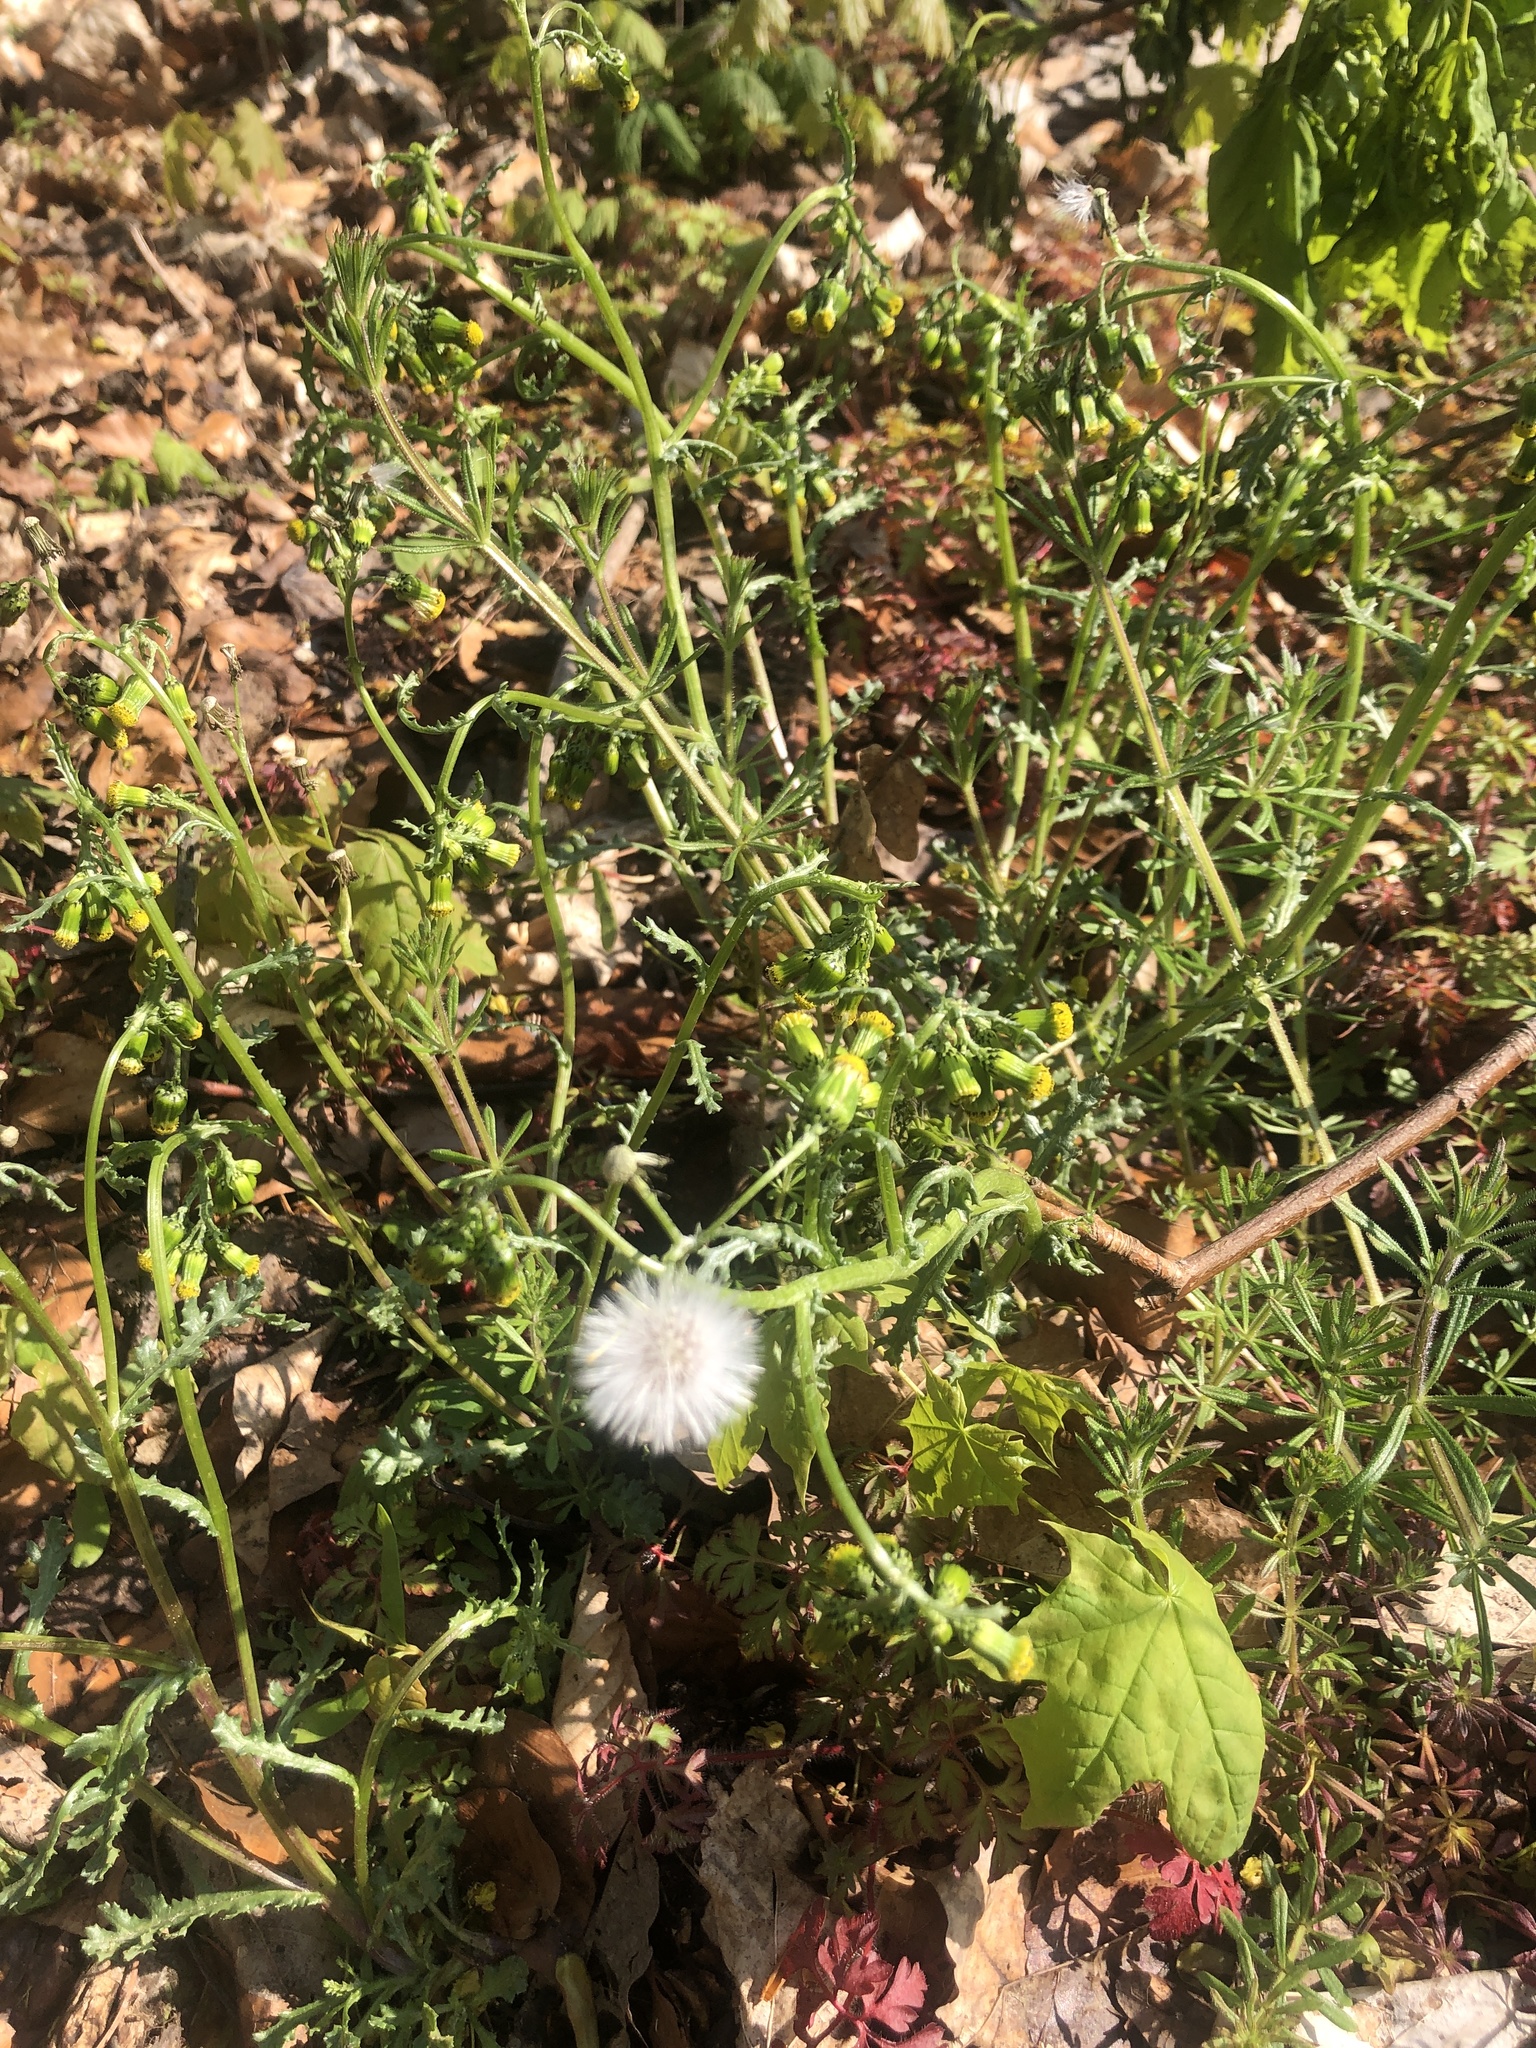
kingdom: Plantae
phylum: Tracheophyta
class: Magnoliopsida
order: Asterales
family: Asteraceae
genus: Senecio
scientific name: Senecio vulgaris
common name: Old-man-in-the-spring
